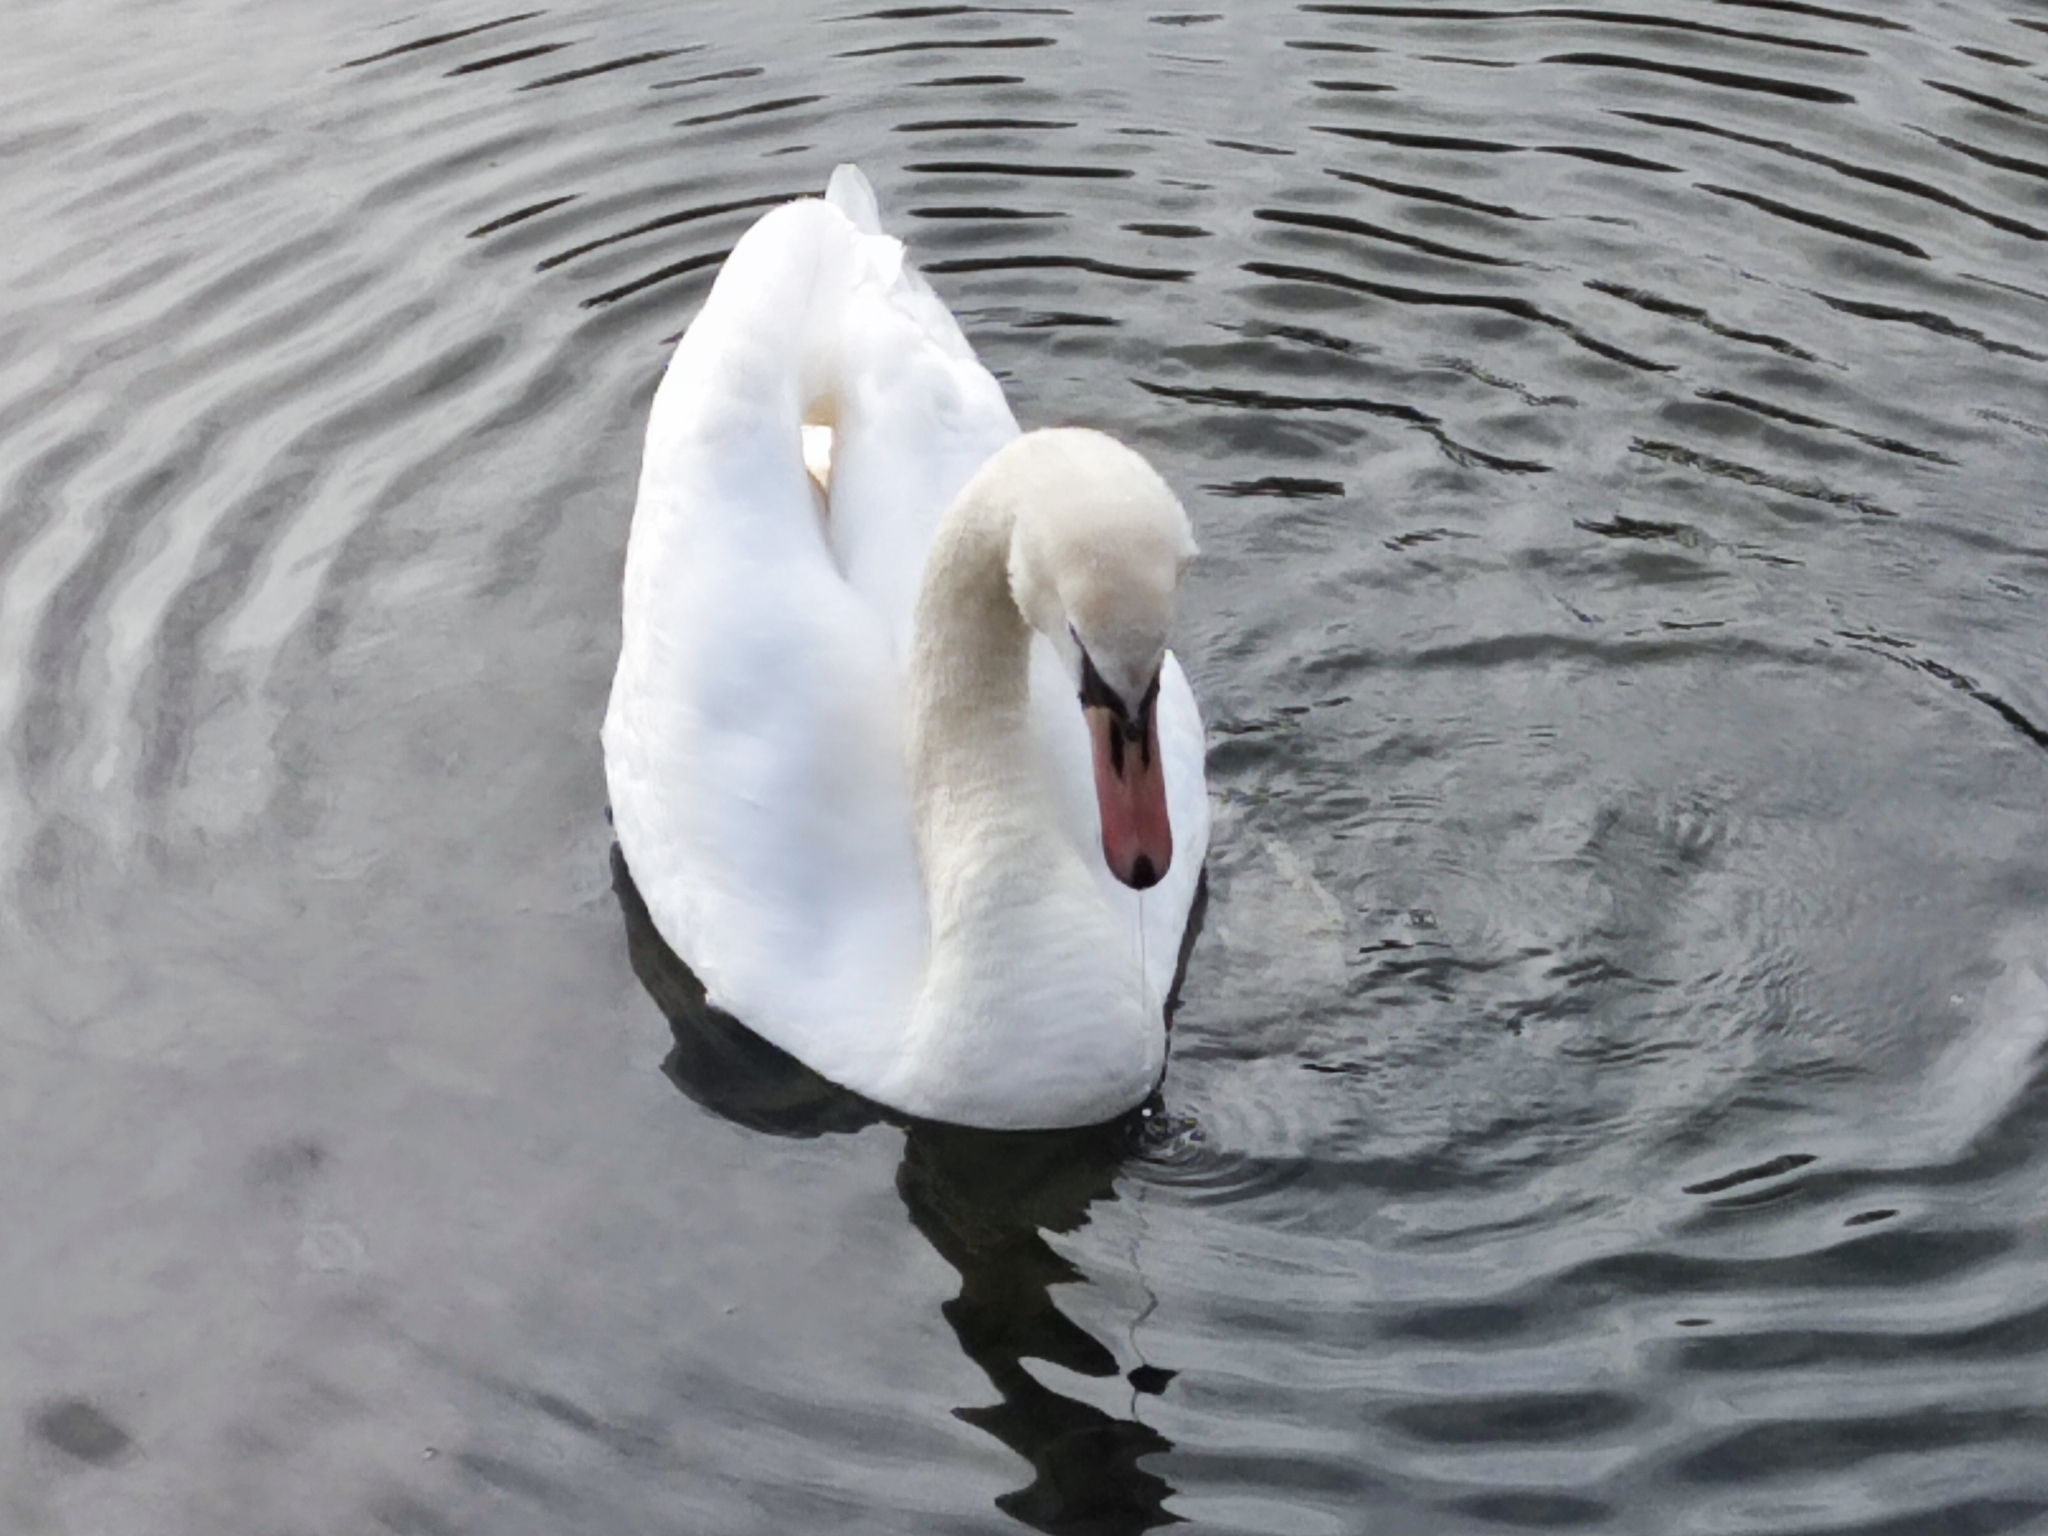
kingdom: Animalia
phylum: Chordata
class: Aves
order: Anseriformes
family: Anatidae
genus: Cygnus
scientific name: Cygnus olor
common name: Mute swan
